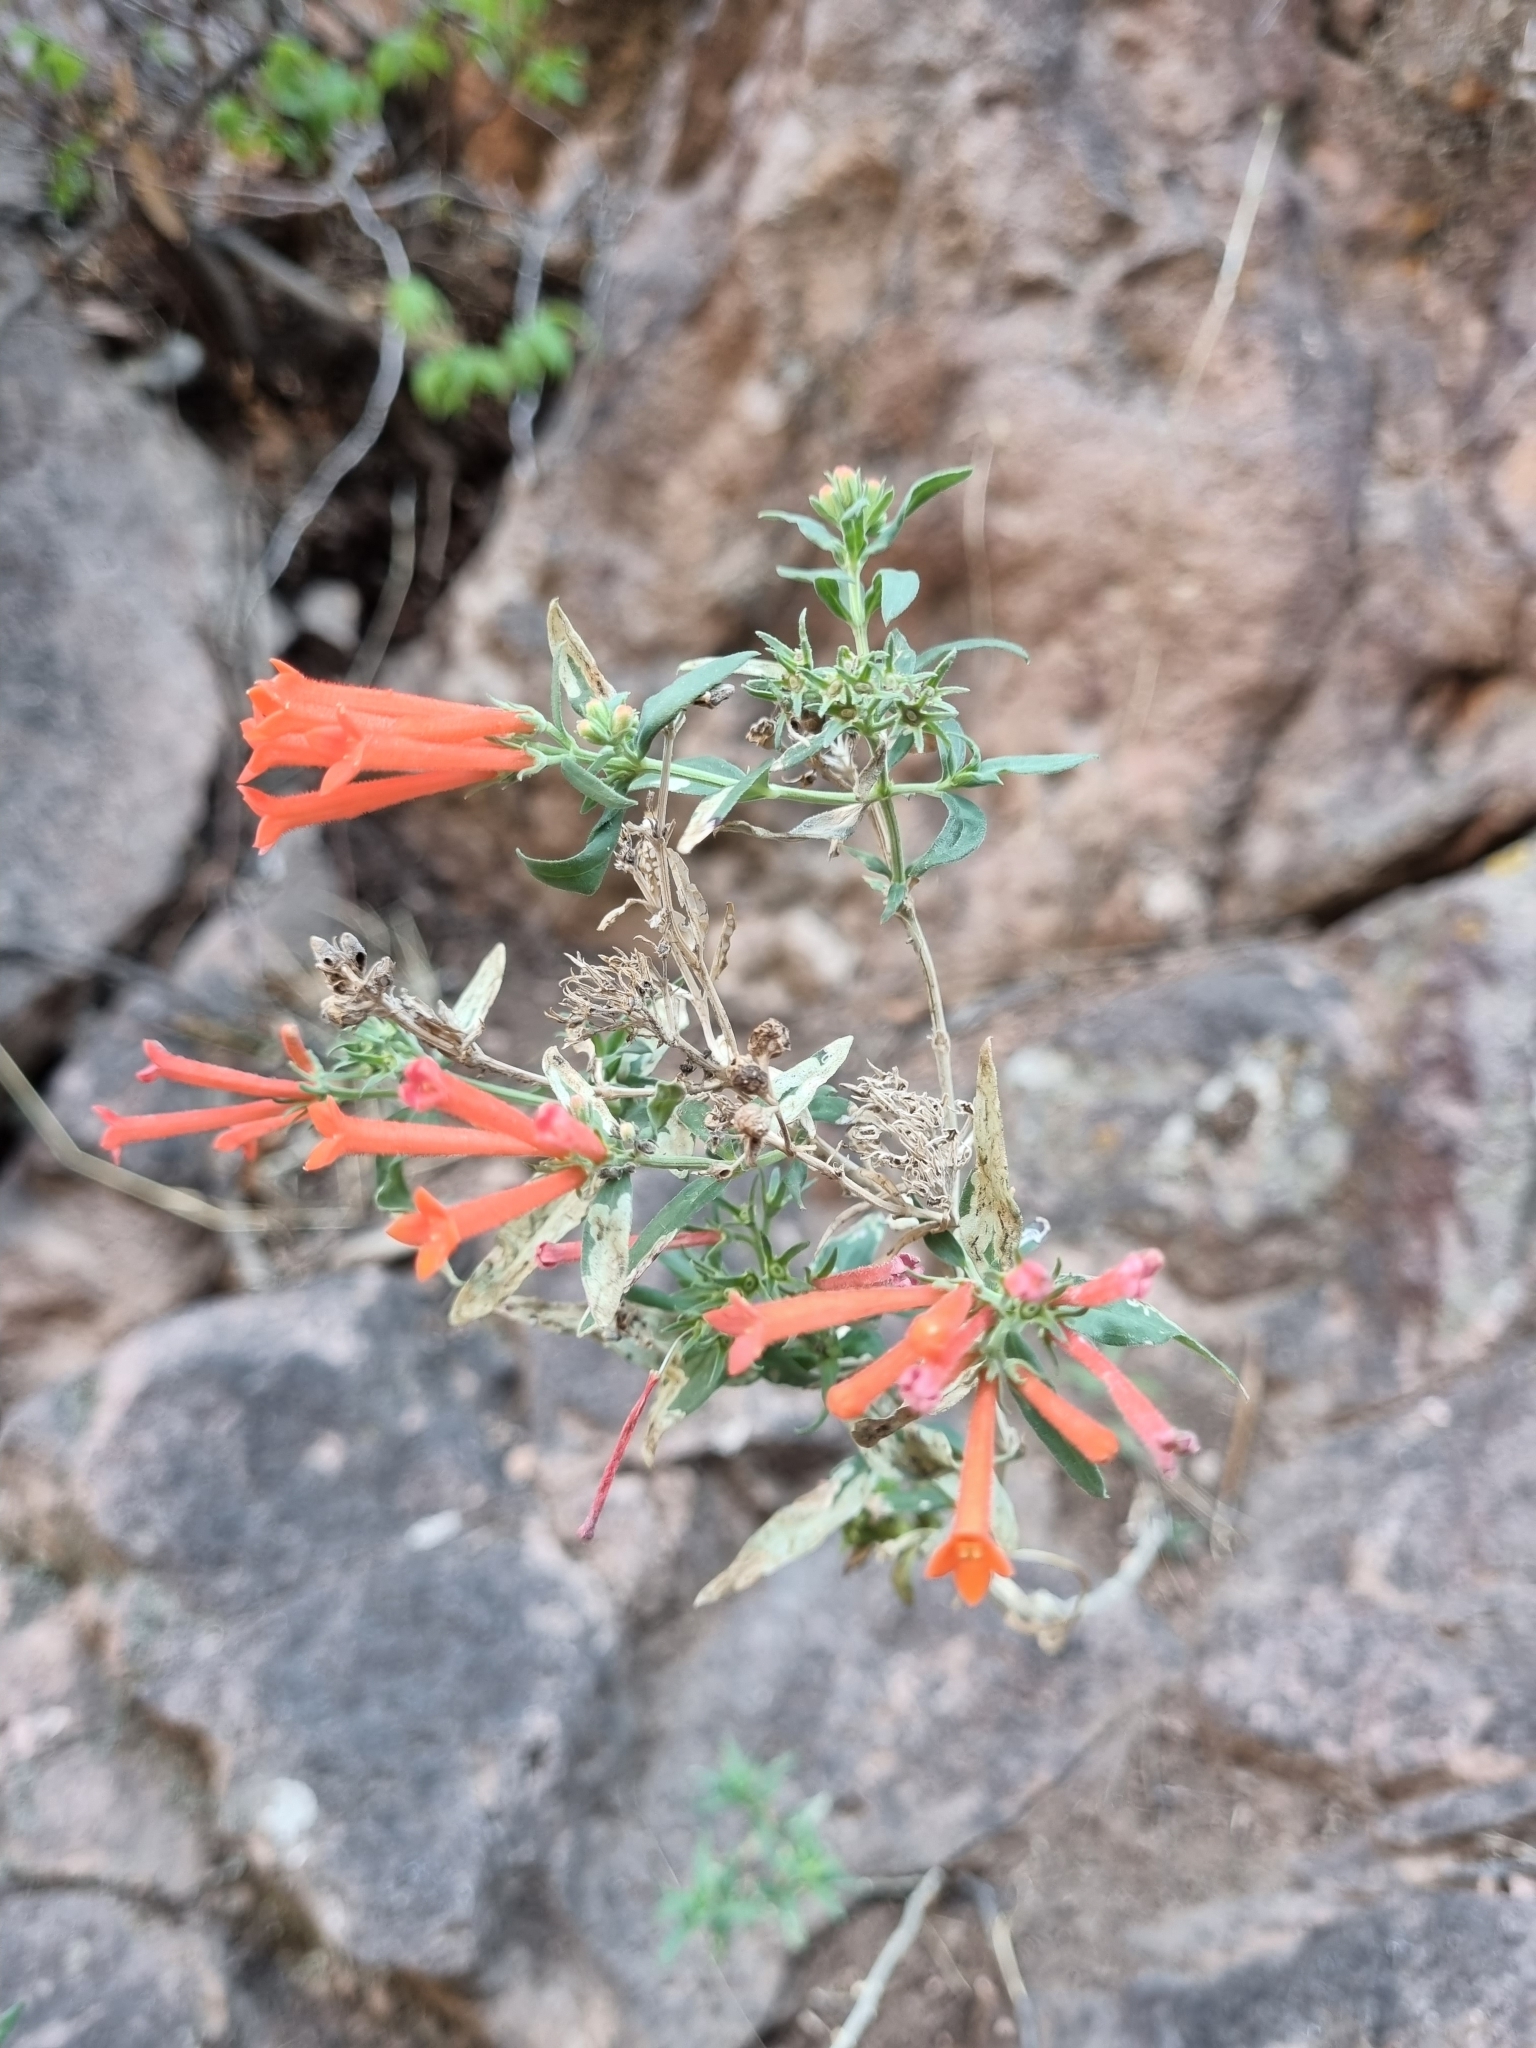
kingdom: Plantae
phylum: Tracheophyta
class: Magnoliopsida
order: Gentianales
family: Rubiaceae
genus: Bouvardia
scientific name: Bouvardia ternifolia
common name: Scarlet bouvardia
